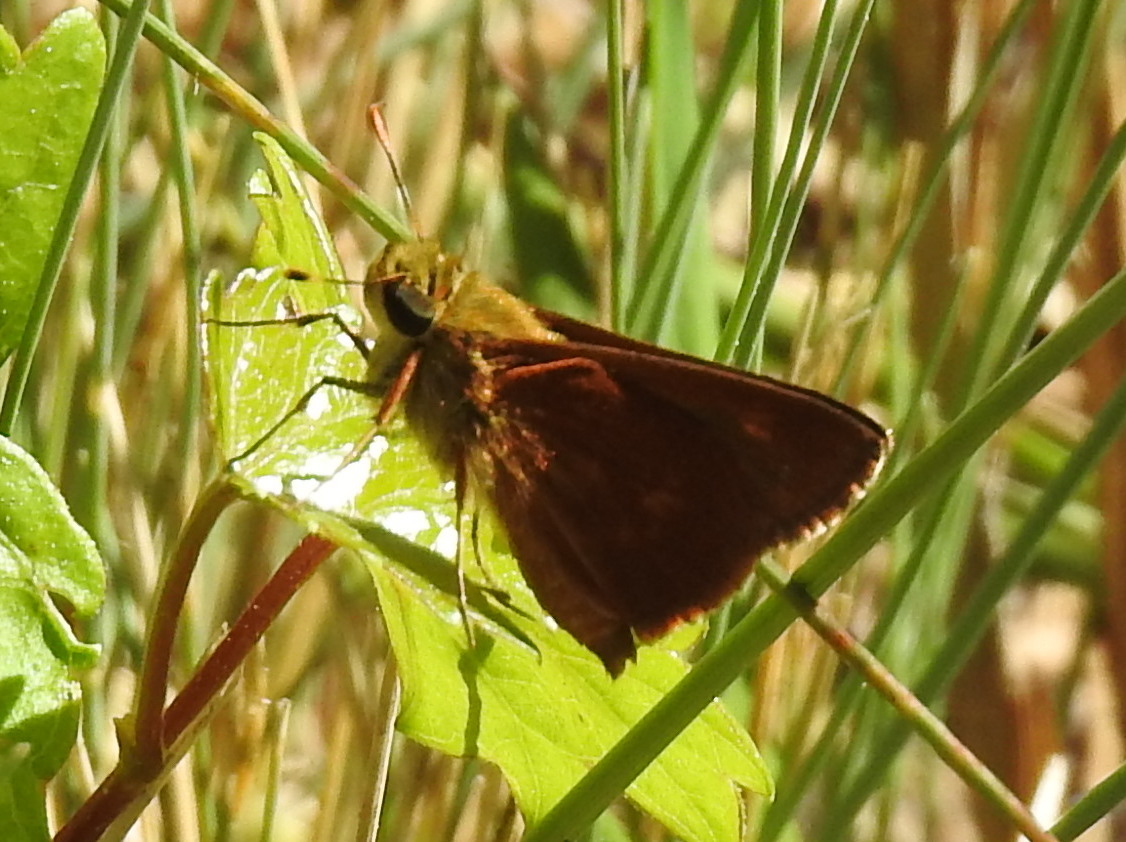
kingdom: Animalia
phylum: Arthropoda
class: Insecta
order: Lepidoptera
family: Hesperiidae
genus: Polites
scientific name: Polites otho
